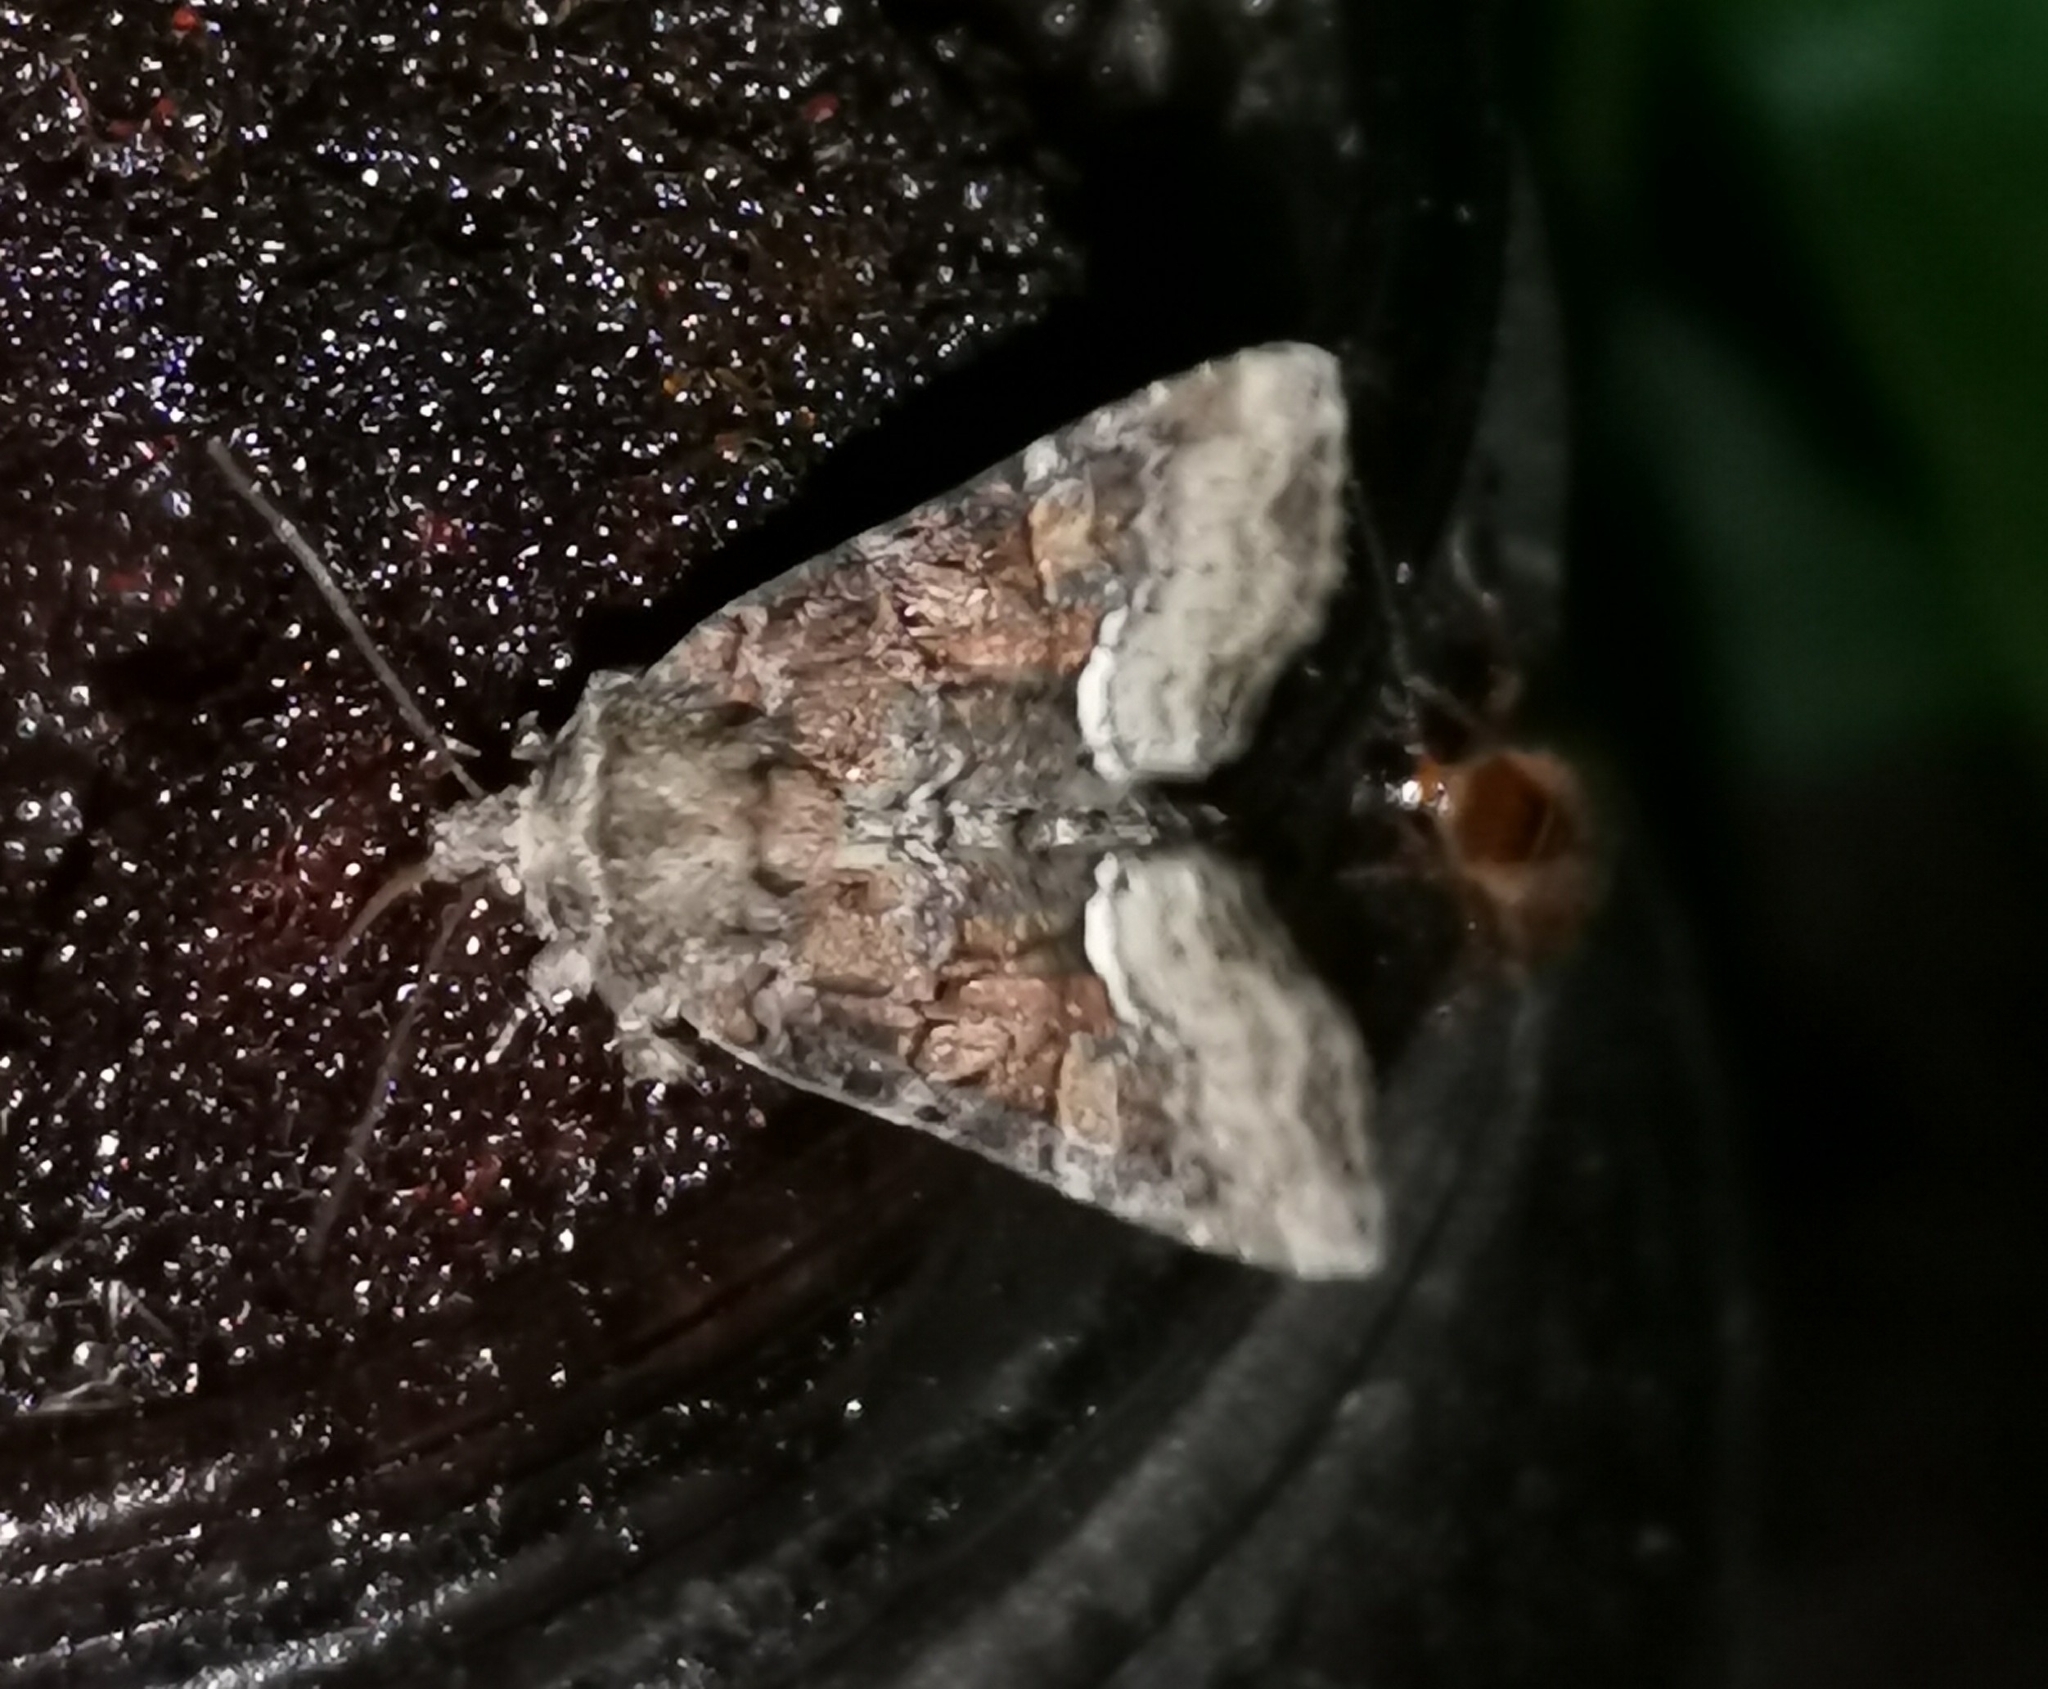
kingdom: Animalia
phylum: Arthropoda
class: Insecta
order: Lepidoptera
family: Noctuidae
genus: Oligia
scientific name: Oligia latruncula
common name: Tawny marbled minor
